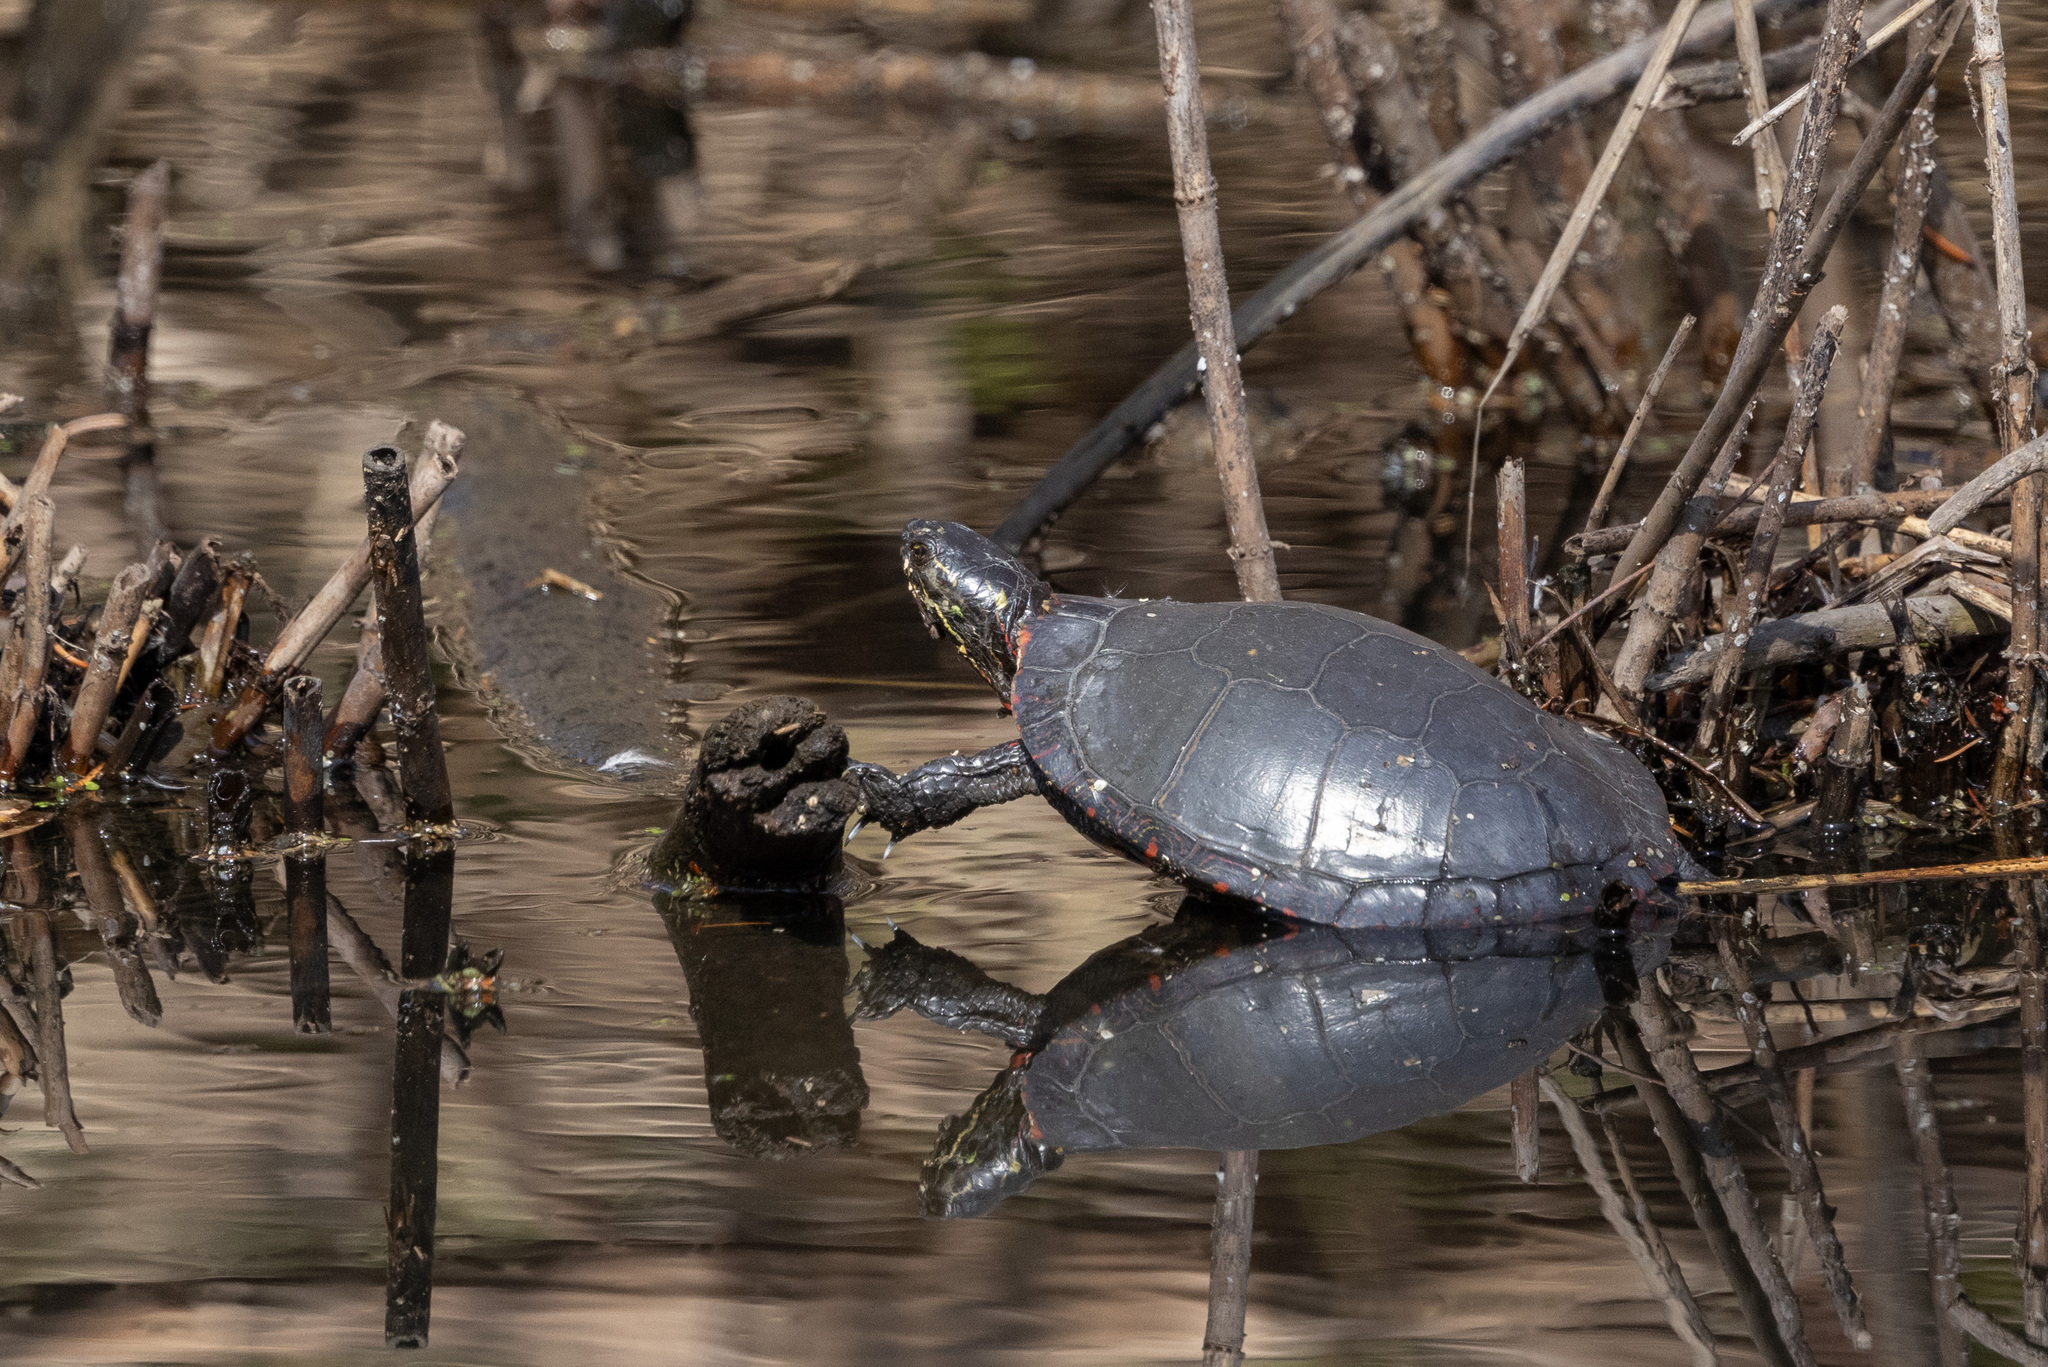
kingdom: Animalia
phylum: Chordata
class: Testudines
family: Emydidae
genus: Chrysemys
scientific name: Chrysemys picta
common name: Painted turtle
